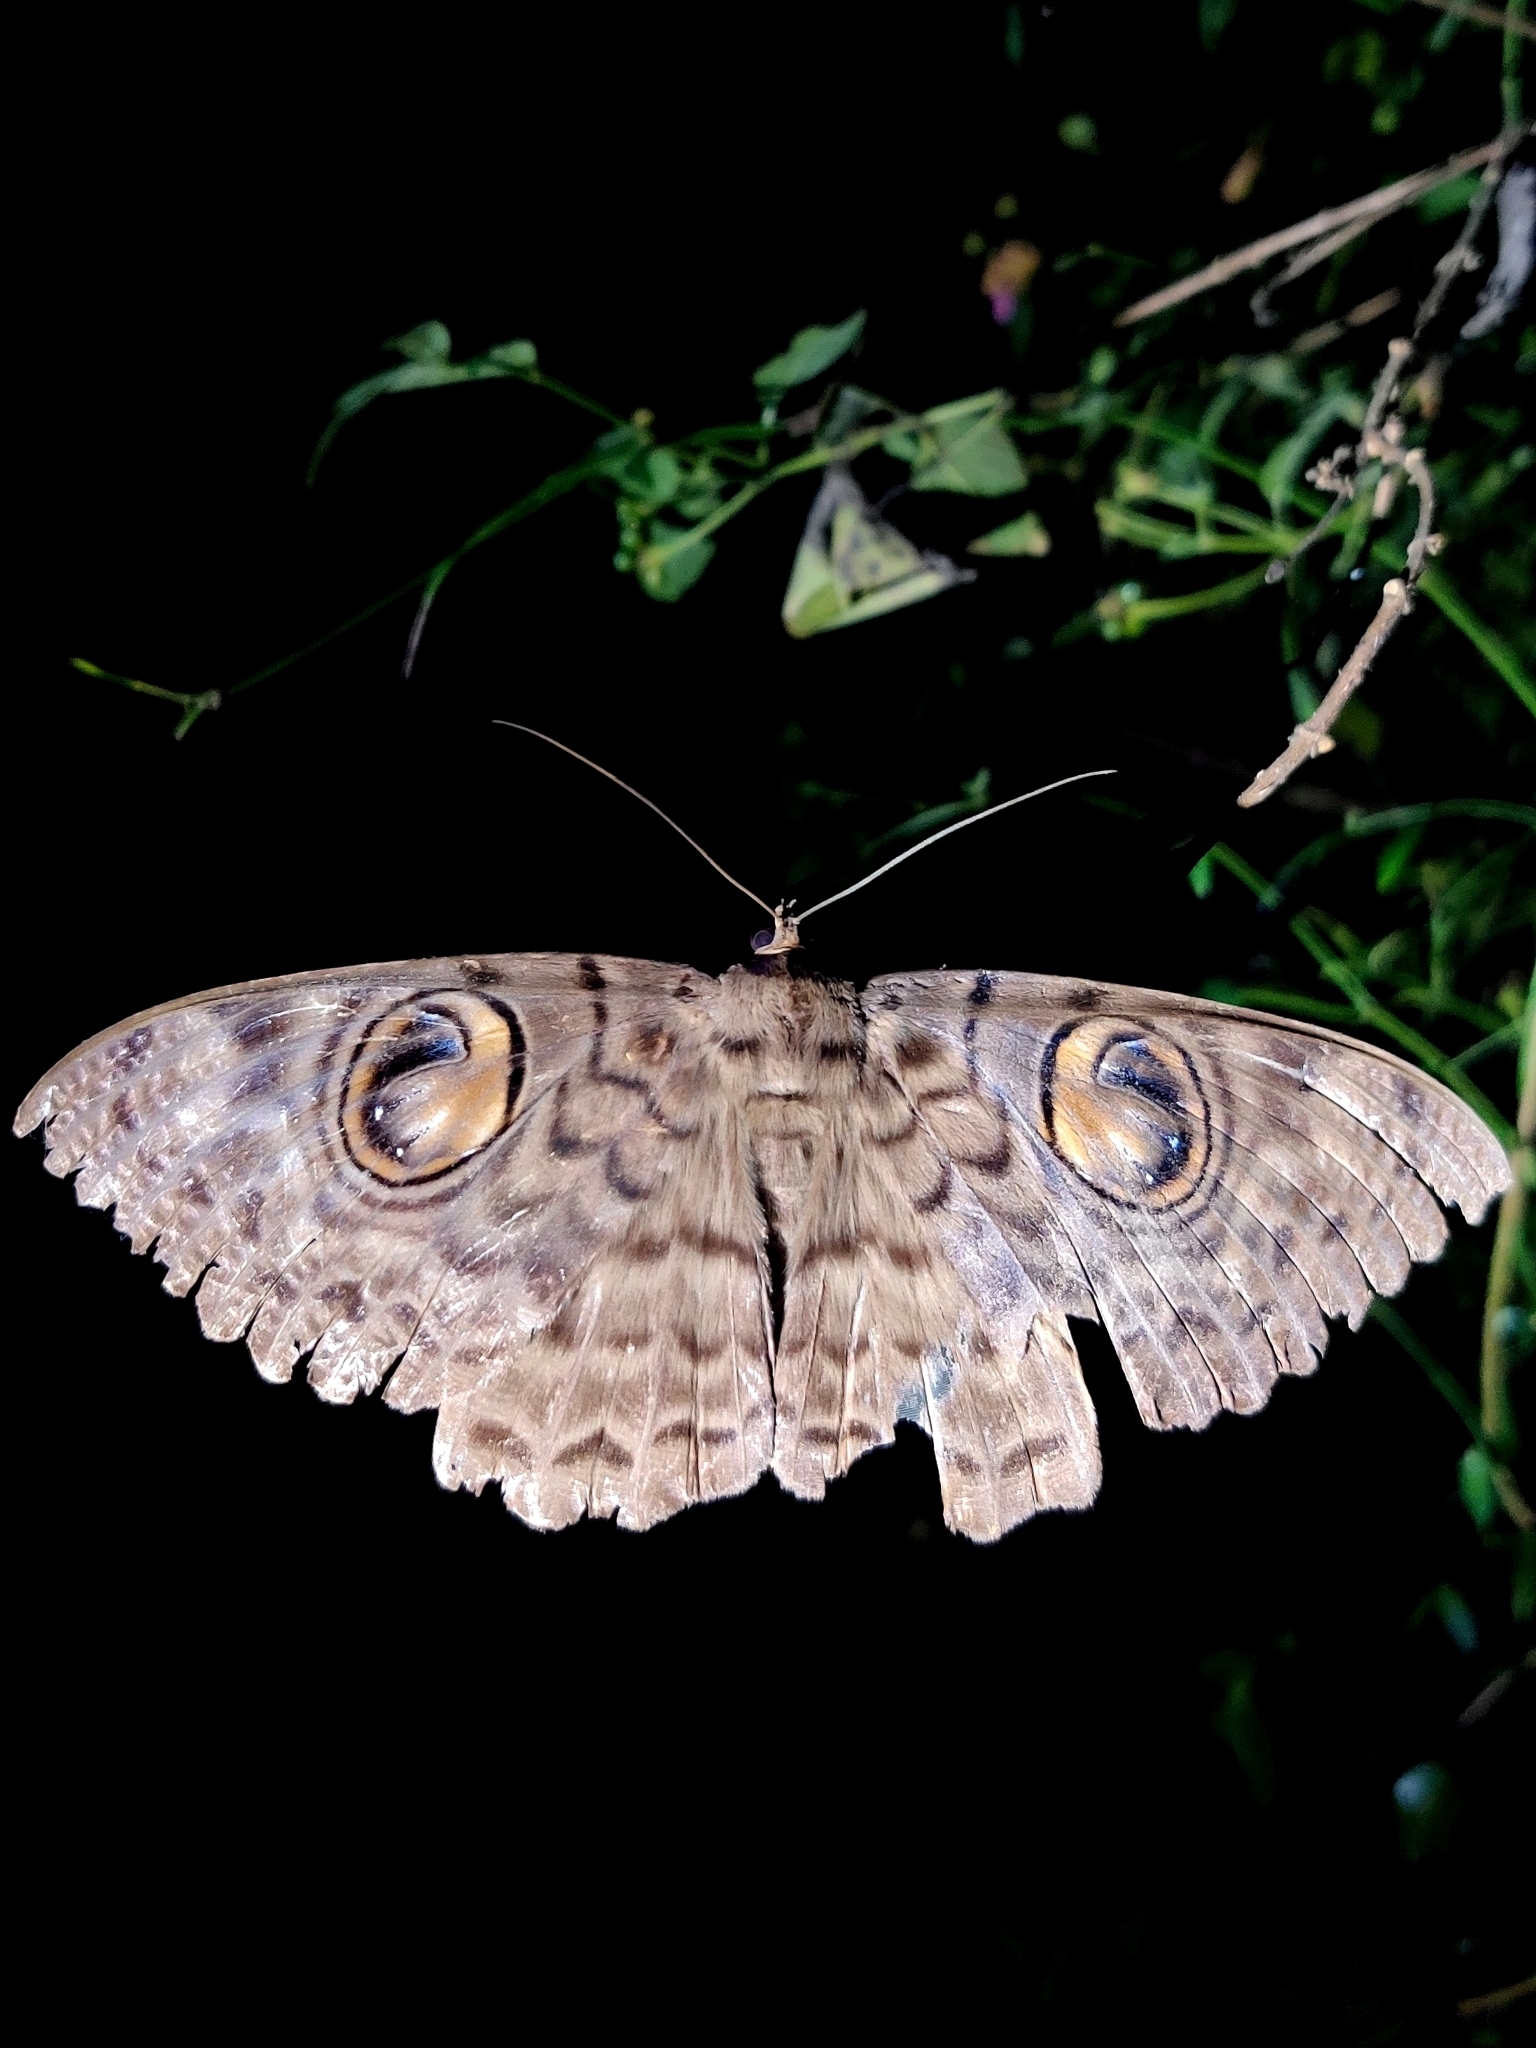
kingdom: Animalia
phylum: Arthropoda
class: Insecta
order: Lepidoptera
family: Erebidae
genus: Erebus
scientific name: Erebus macrops
